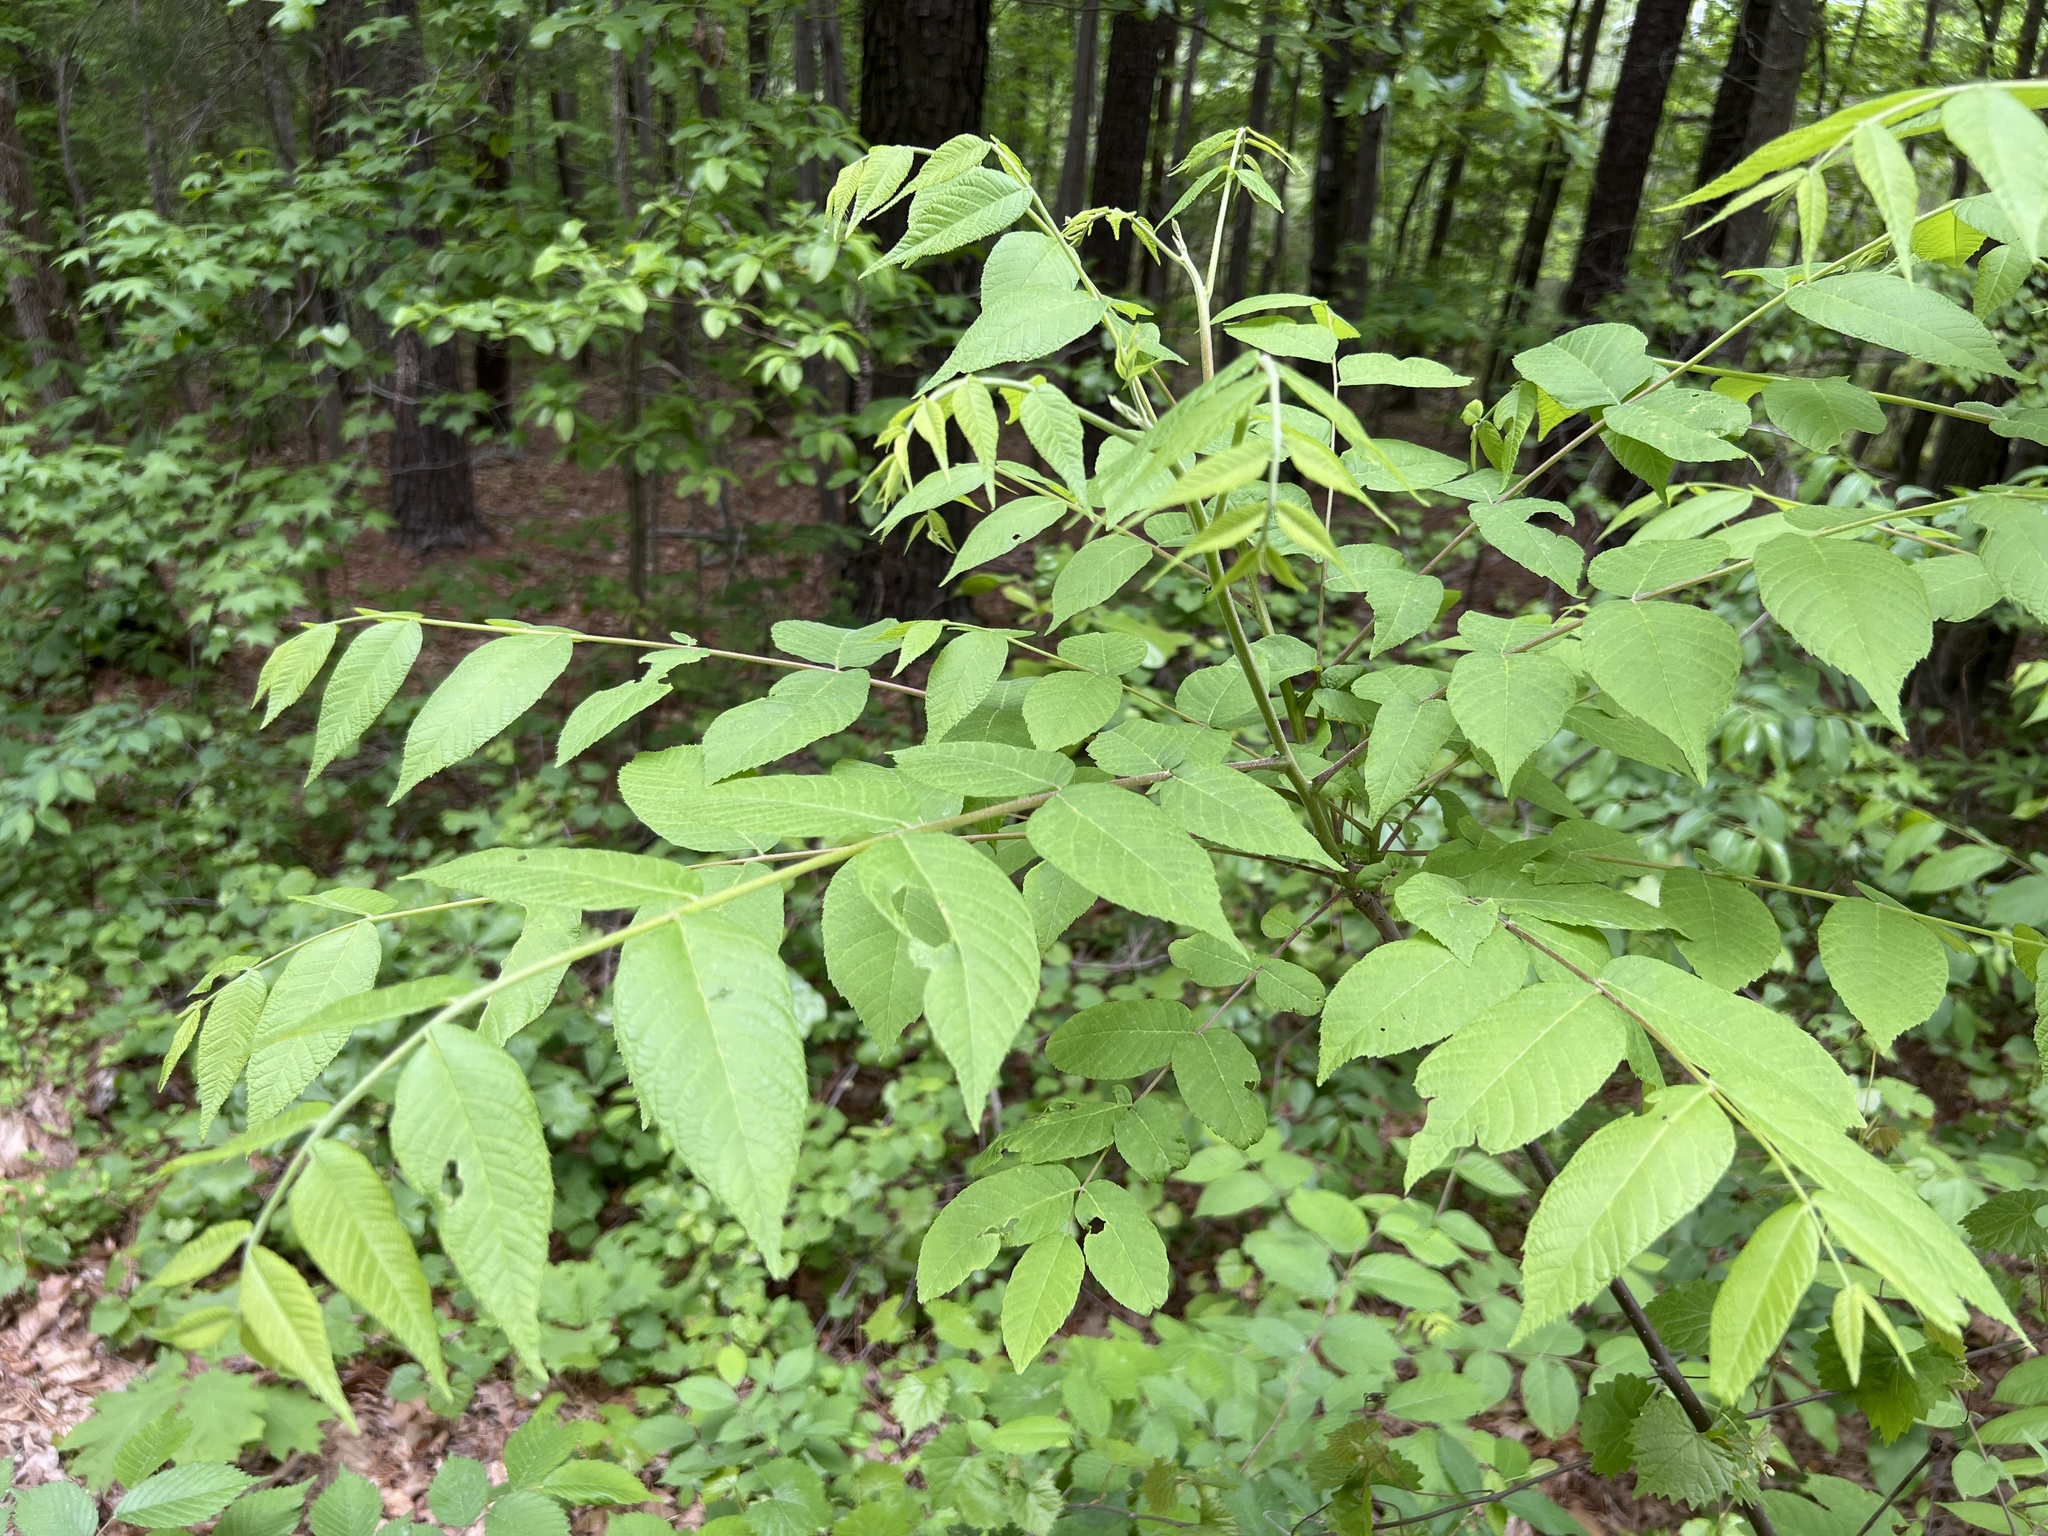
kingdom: Plantae
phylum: Tracheophyta
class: Magnoliopsida
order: Fagales
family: Juglandaceae
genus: Juglans
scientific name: Juglans nigra
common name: Black walnut
